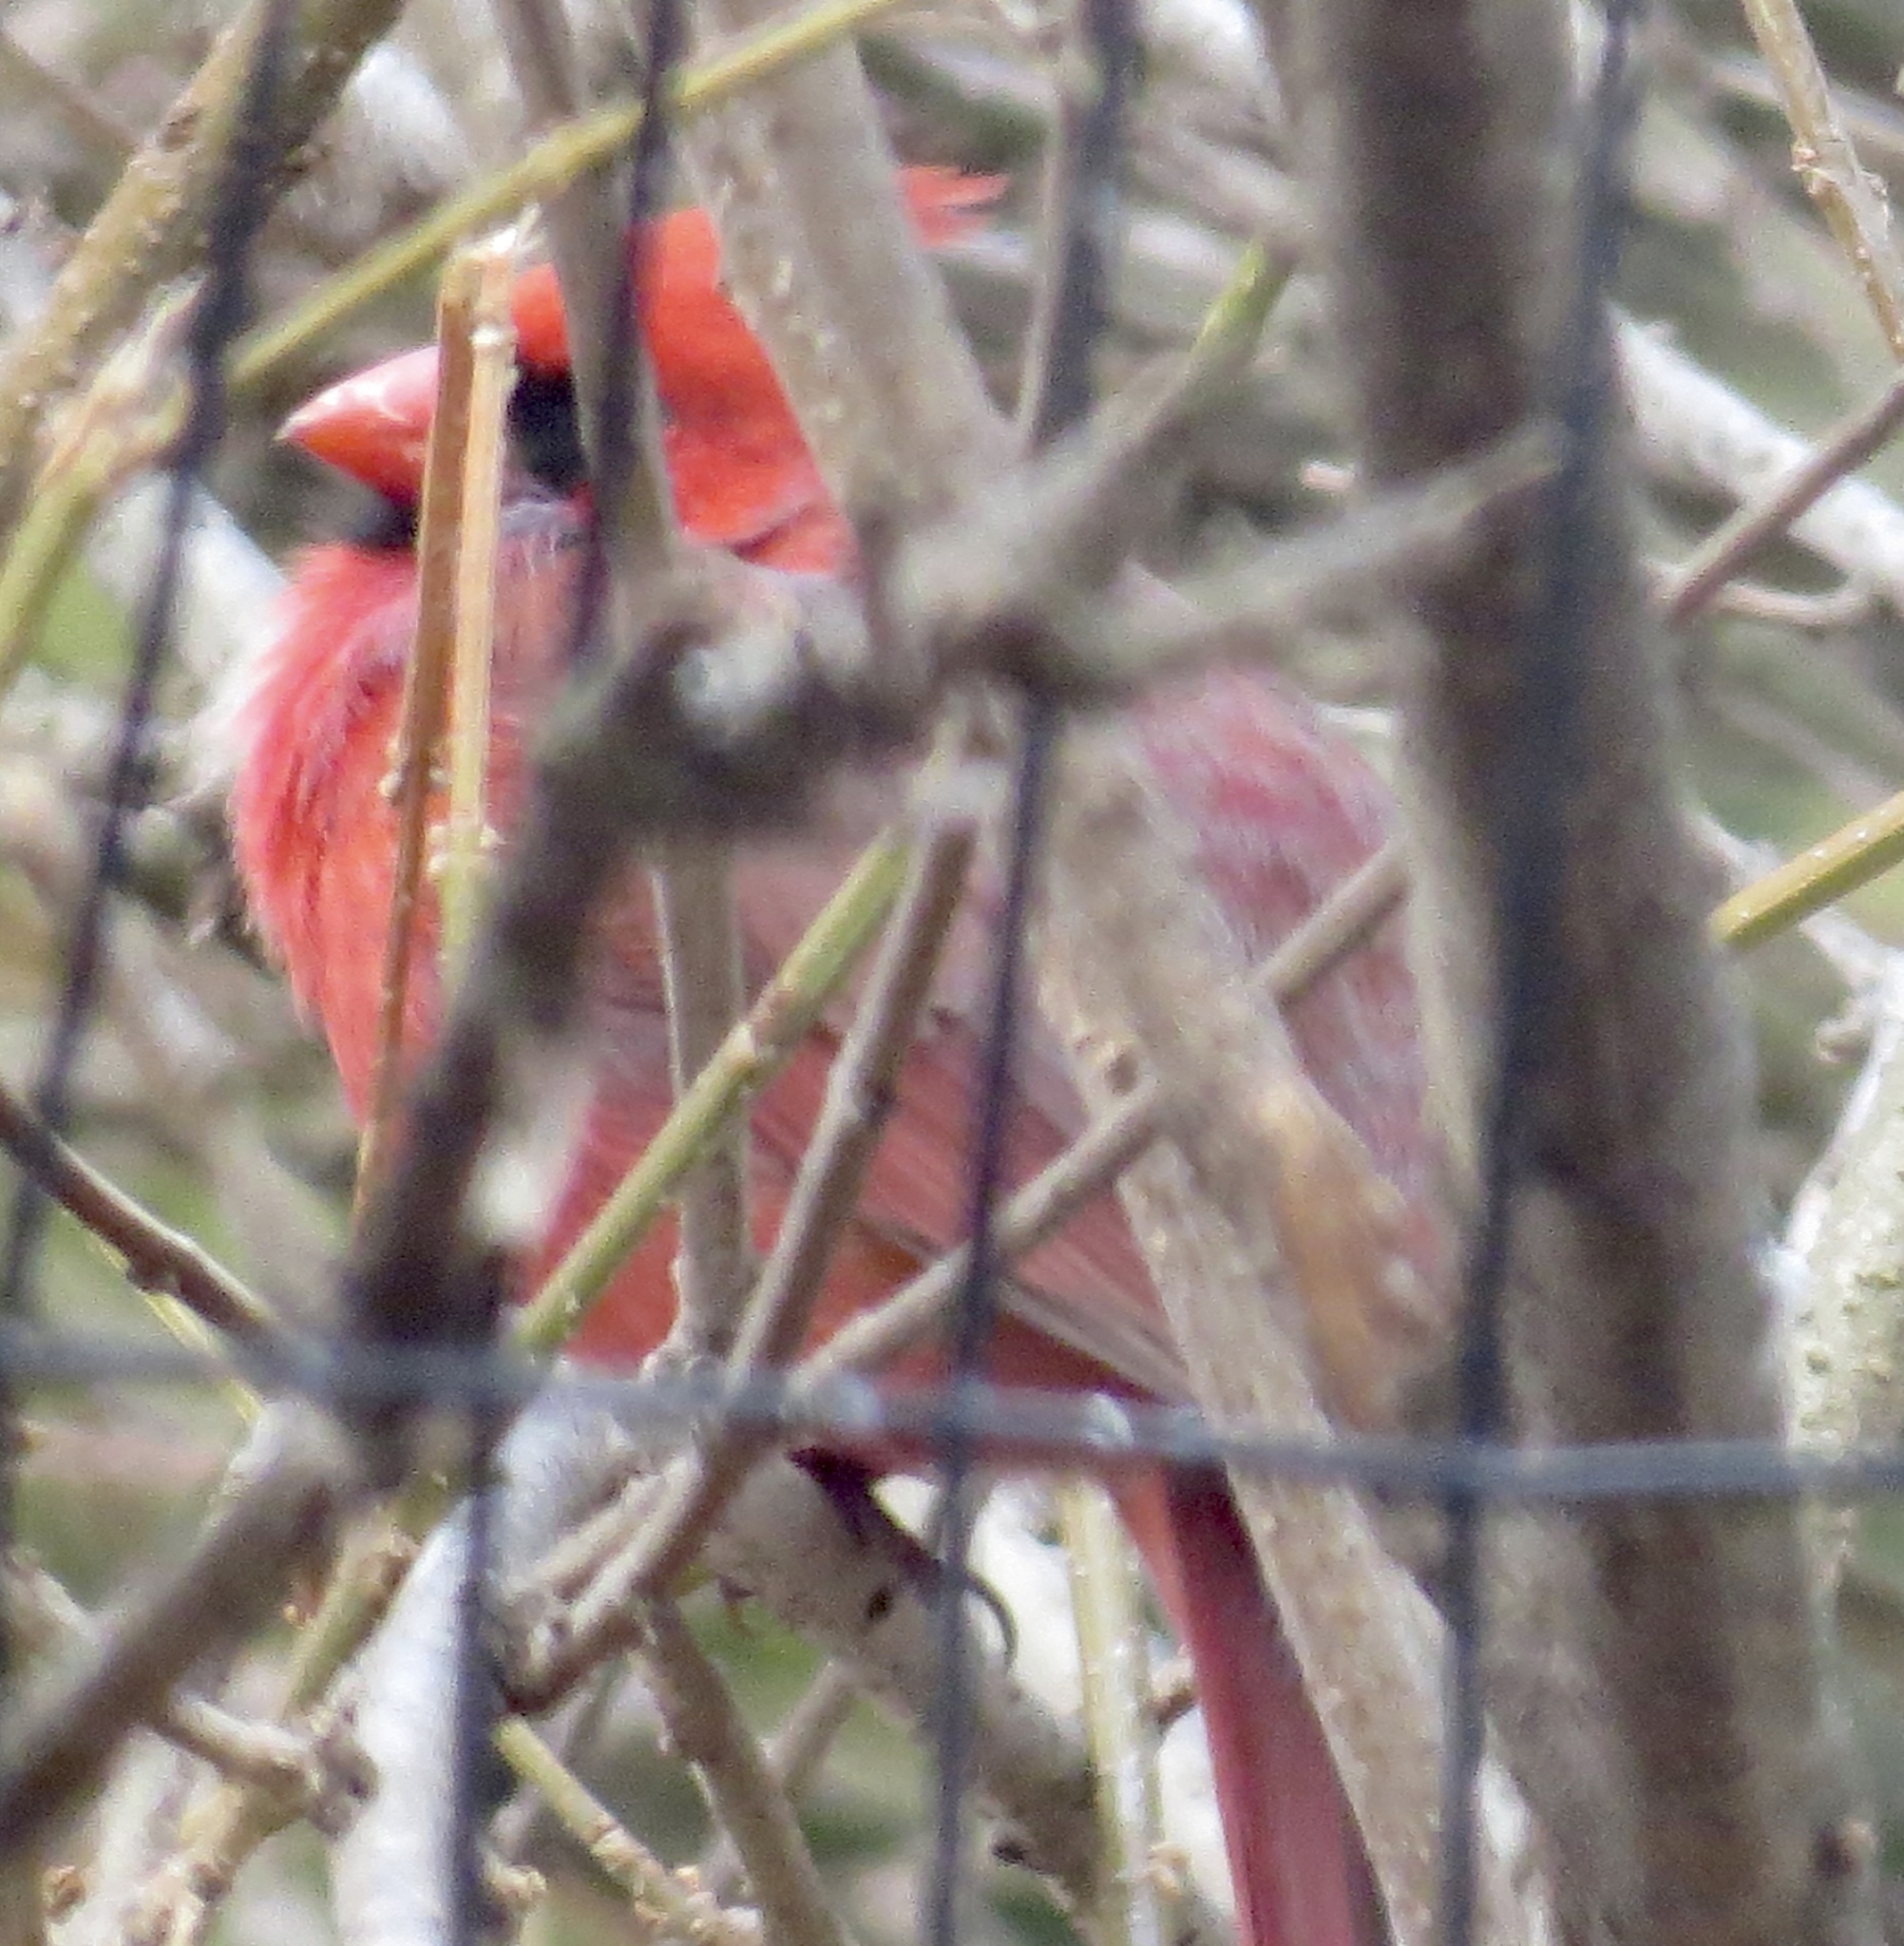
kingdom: Animalia
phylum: Chordata
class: Aves
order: Passeriformes
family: Cardinalidae
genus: Cardinalis
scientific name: Cardinalis cardinalis
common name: Northern cardinal
